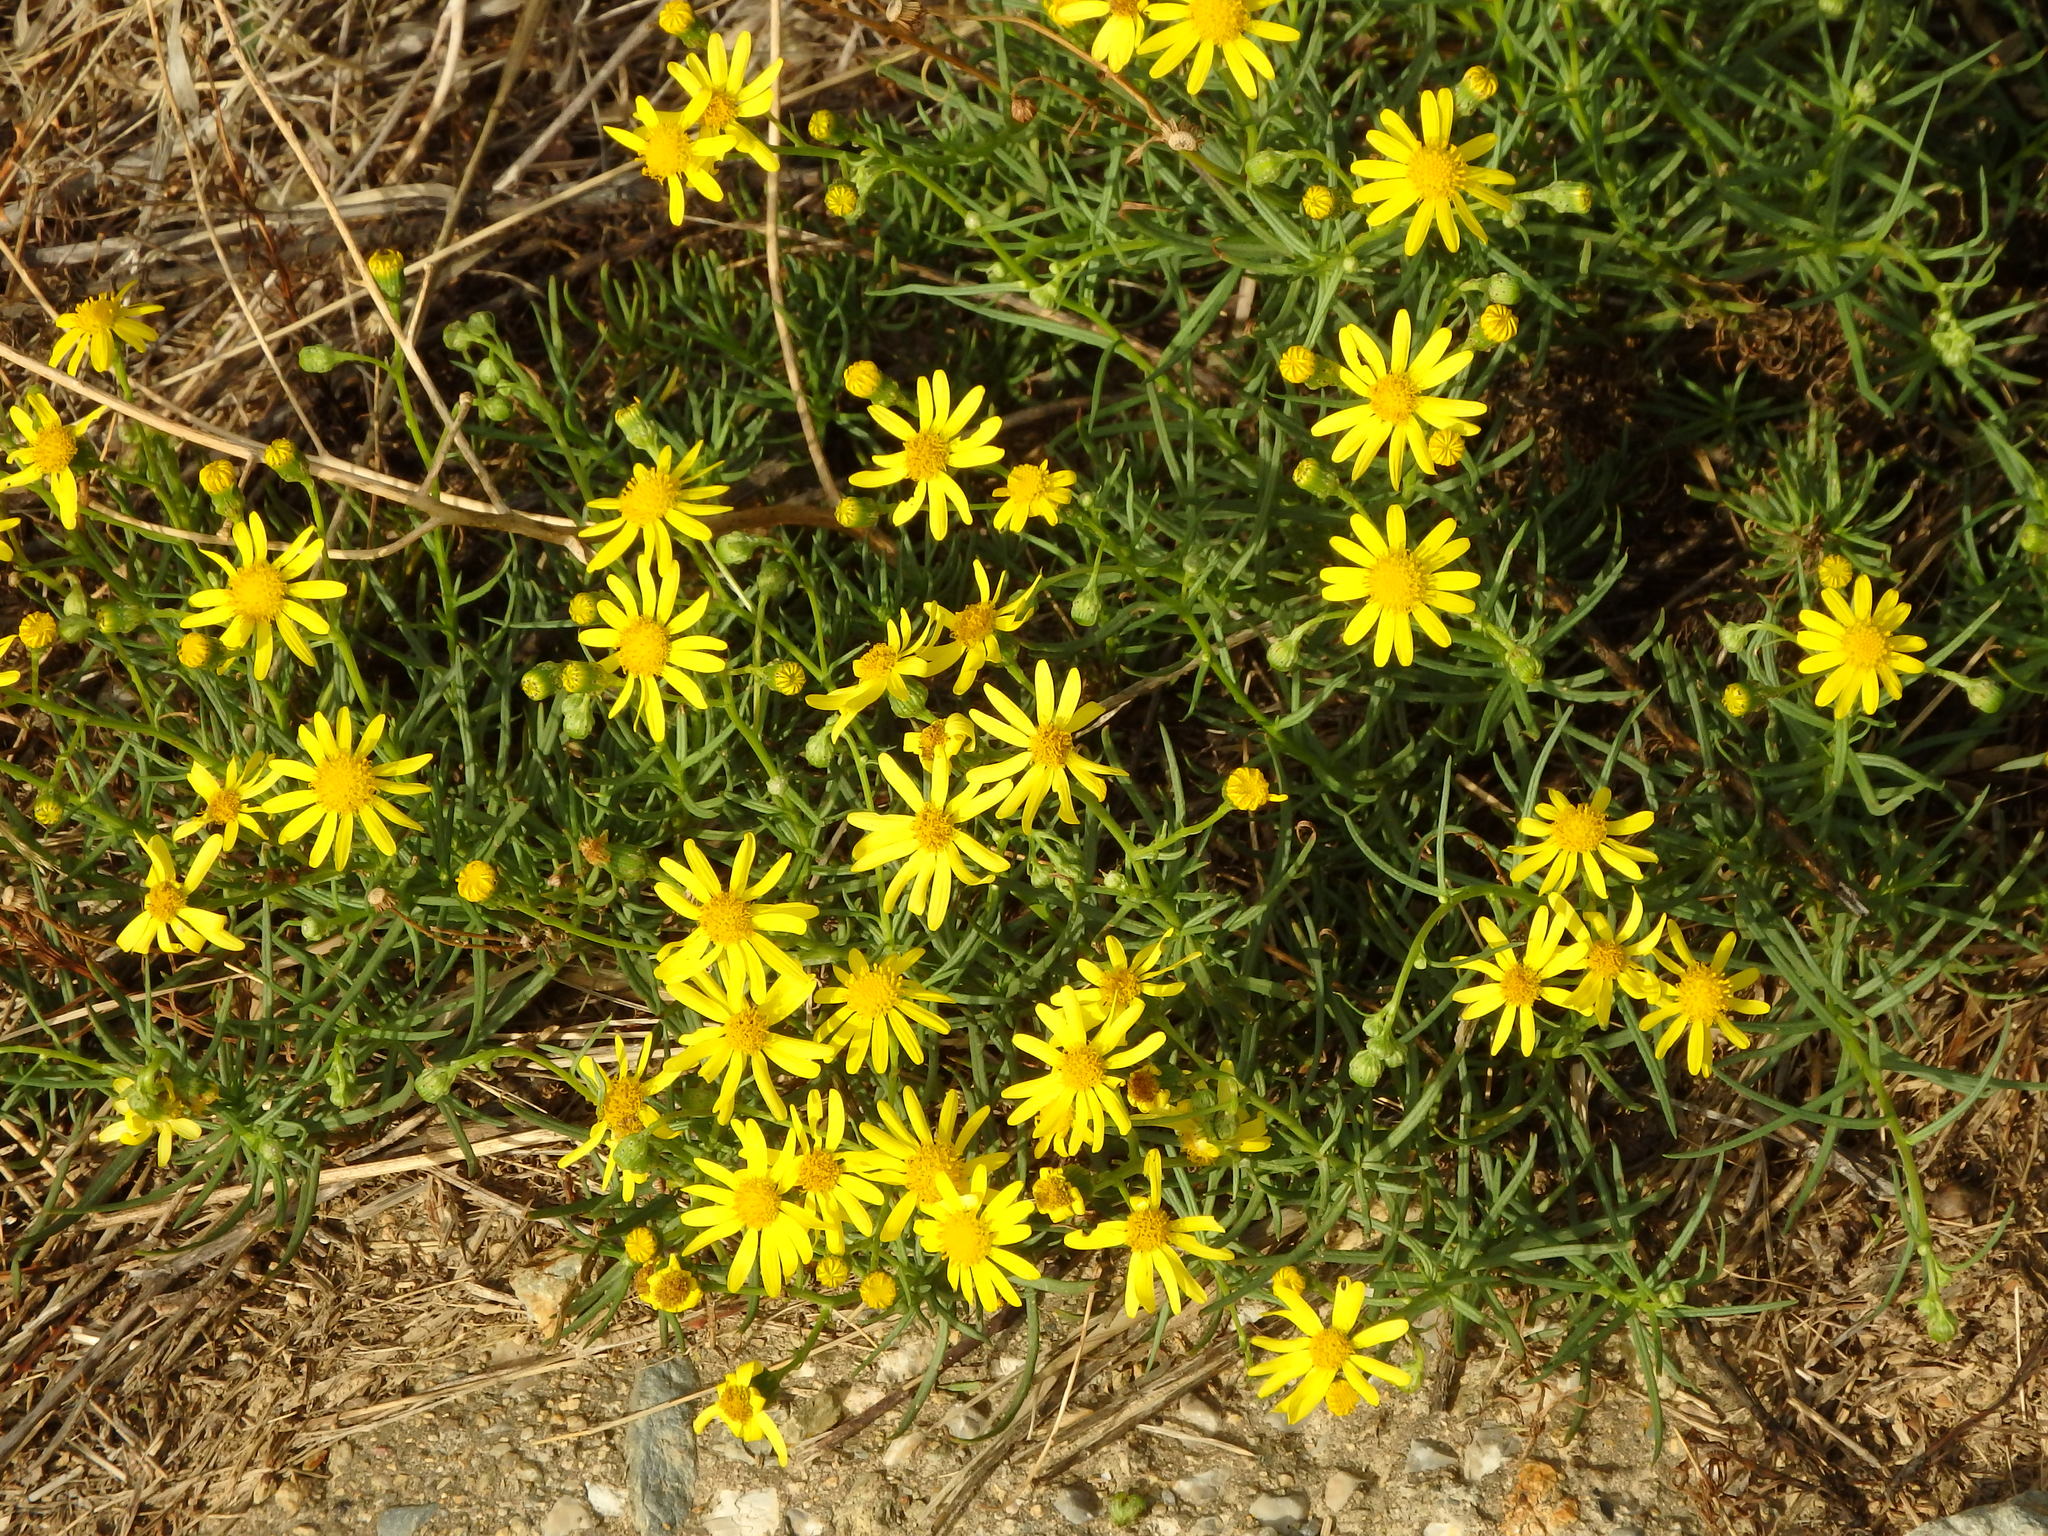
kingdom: Plantae
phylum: Tracheophyta
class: Magnoliopsida
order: Asterales
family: Asteraceae
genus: Senecio
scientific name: Senecio inaequidens
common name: Narrow-leaved ragwort
